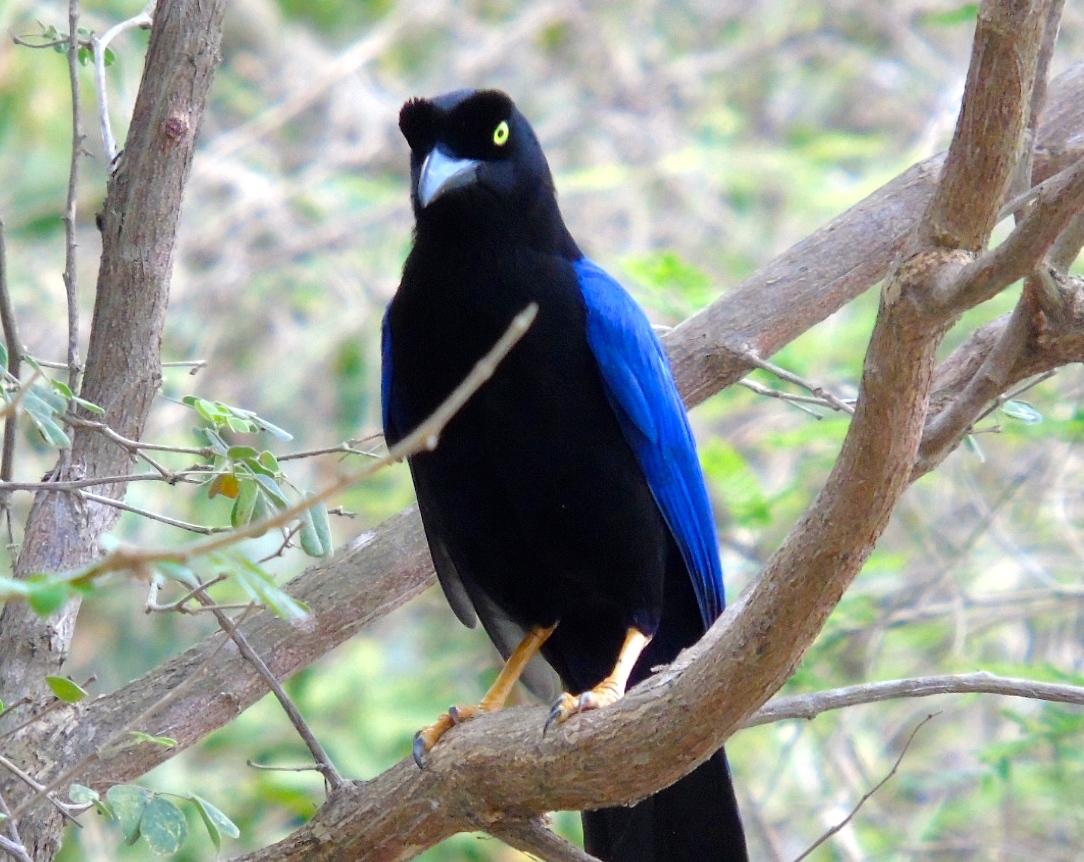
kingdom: Animalia
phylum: Chordata
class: Aves
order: Passeriformes
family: Corvidae
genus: Cyanocorax
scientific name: Cyanocorax beecheii
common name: Purplish-backed jay
